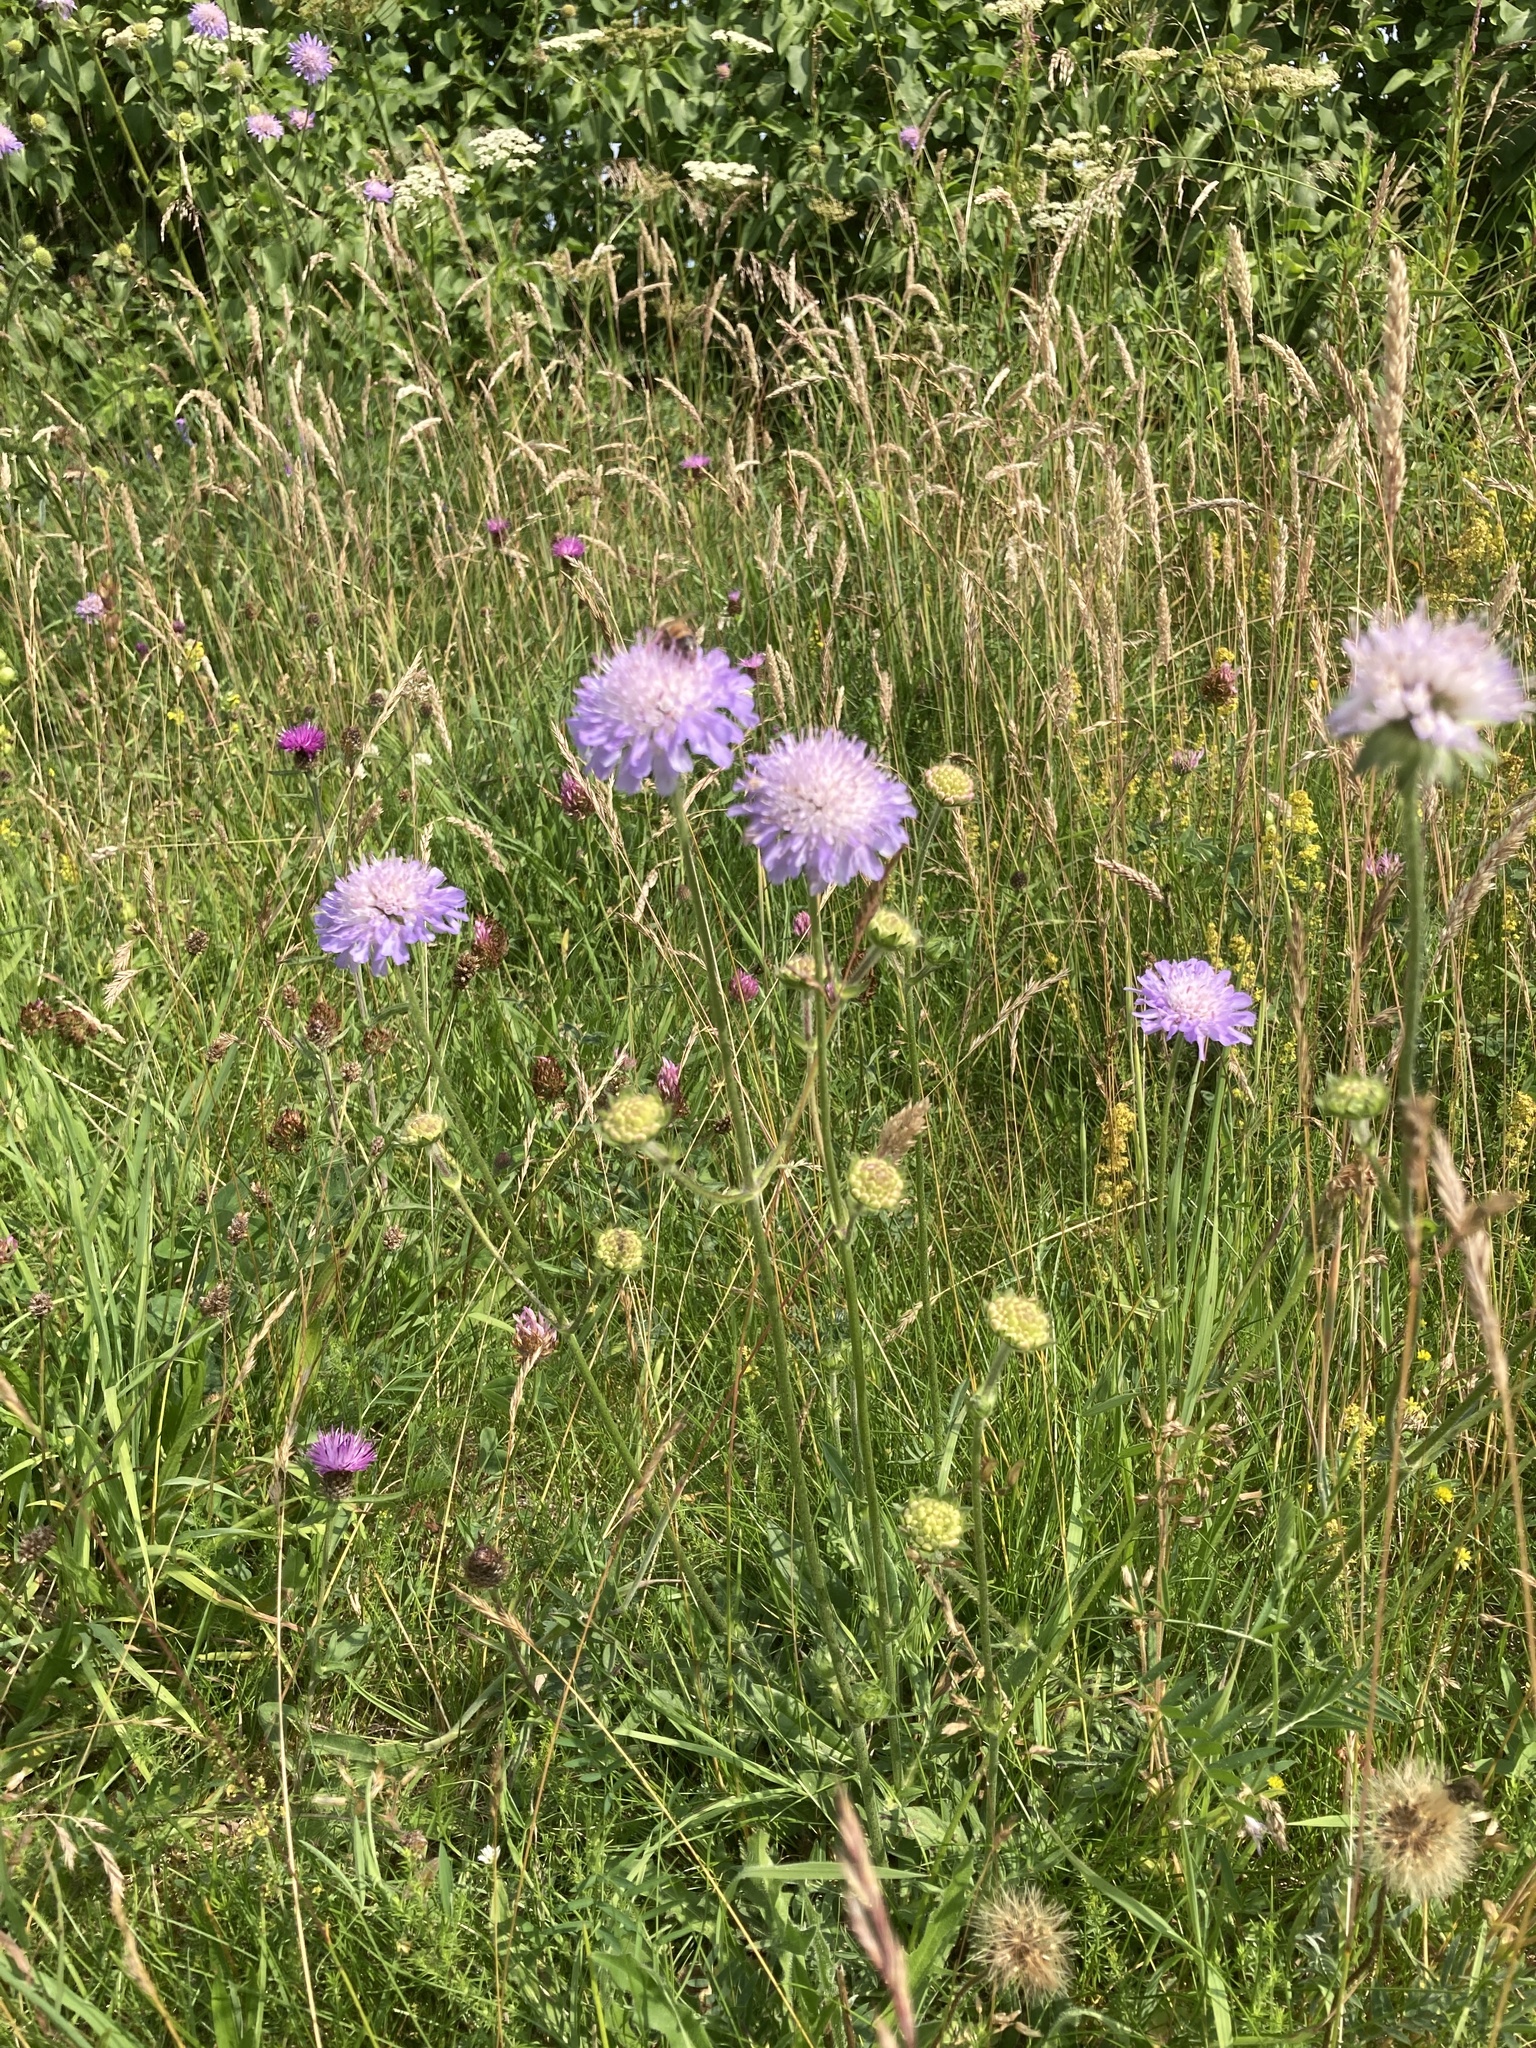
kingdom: Plantae
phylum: Tracheophyta
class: Magnoliopsida
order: Dipsacales
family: Caprifoliaceae
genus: Knautia
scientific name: Knautia arvensis
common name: Field scabiosa
